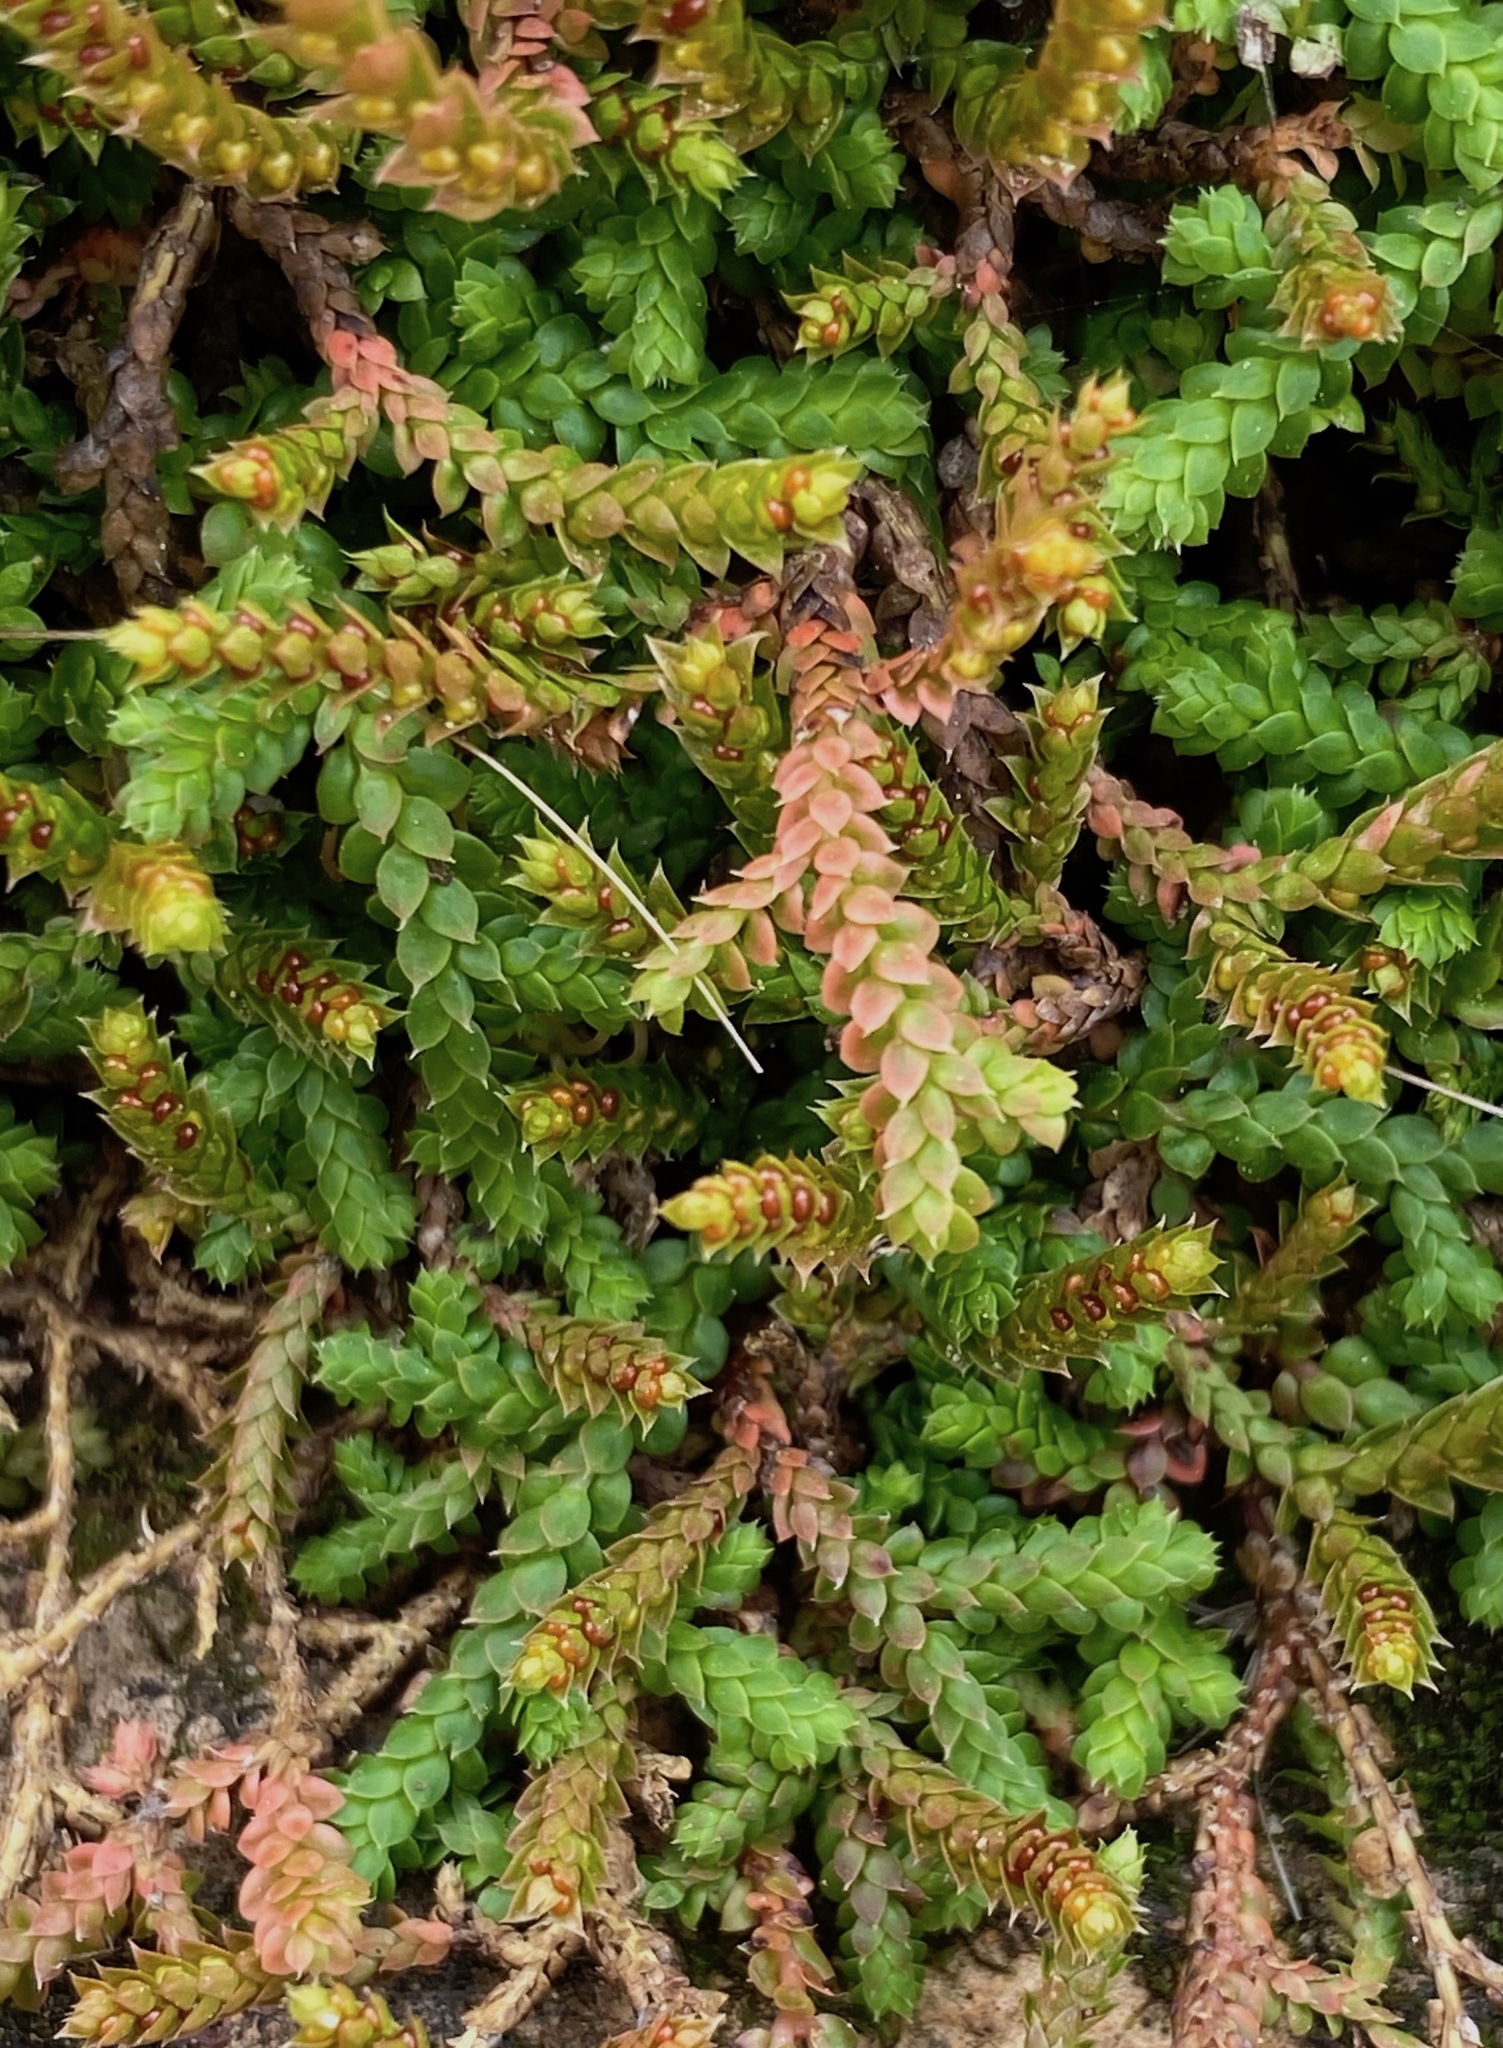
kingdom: Plantae
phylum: Tracheophyta
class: Lycopodiopsida
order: Selaginellales
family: Selaginellaceae
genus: Selaginella
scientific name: Selaginella denticulata
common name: Toothed-leaved clubmoss
